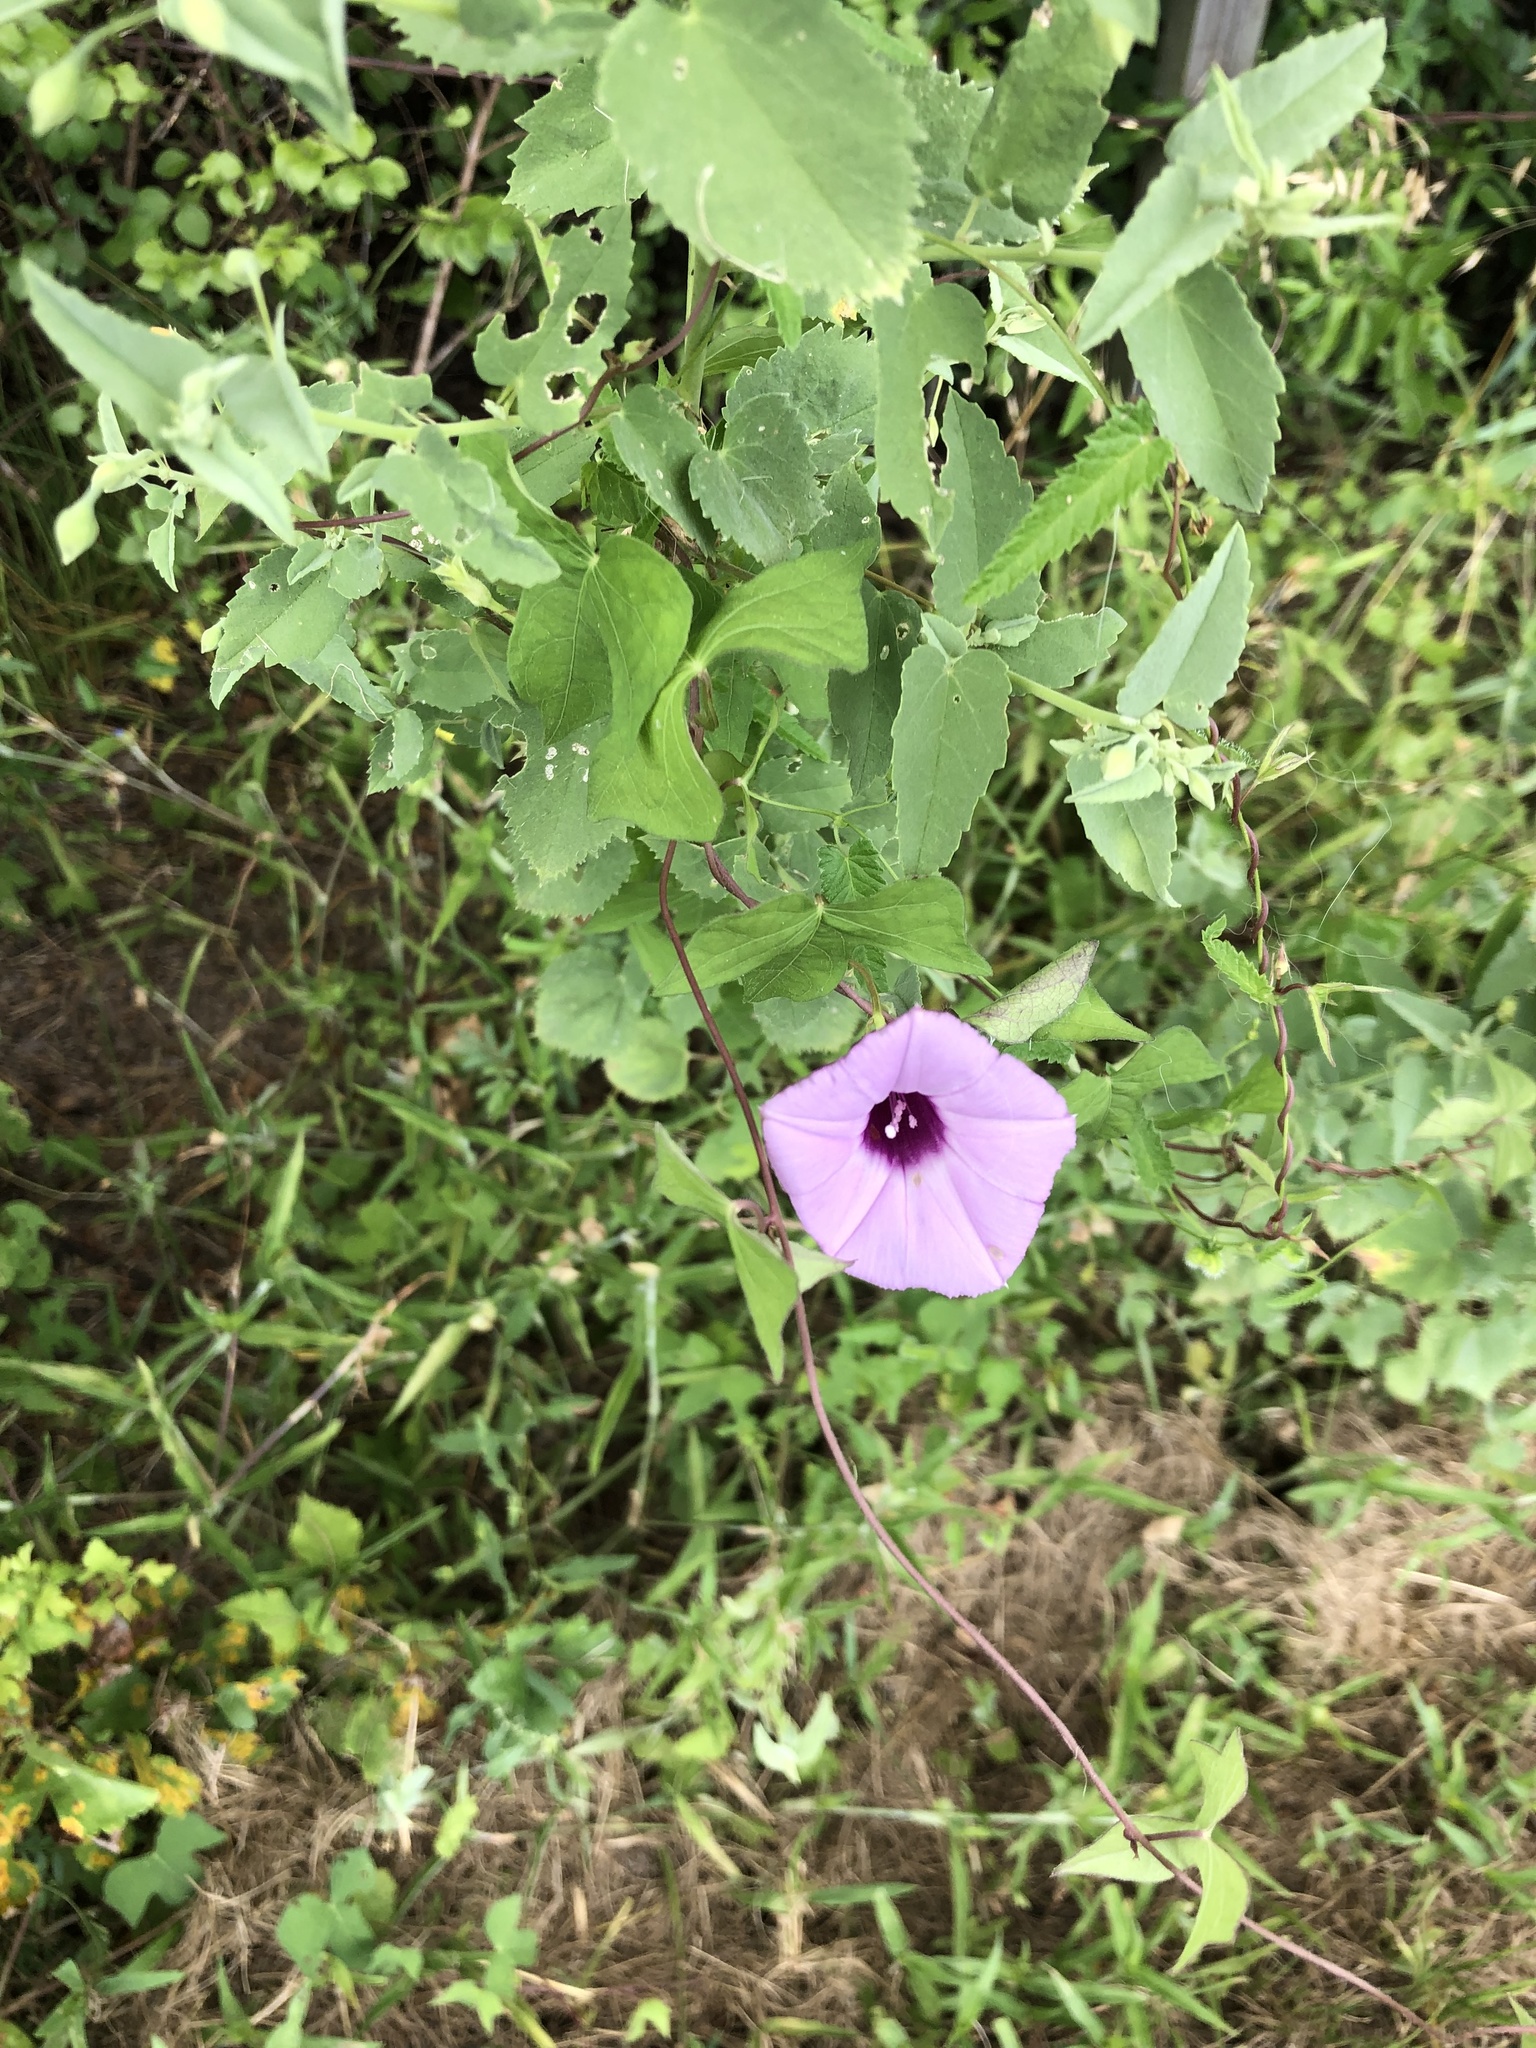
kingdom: Plantae
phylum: Tracheophyta
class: Magnoliopsida
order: Solanales
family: Convolvulaceae
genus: Ipomoea
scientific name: Ipomoea cordatotriloba
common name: Cotton morning glory
